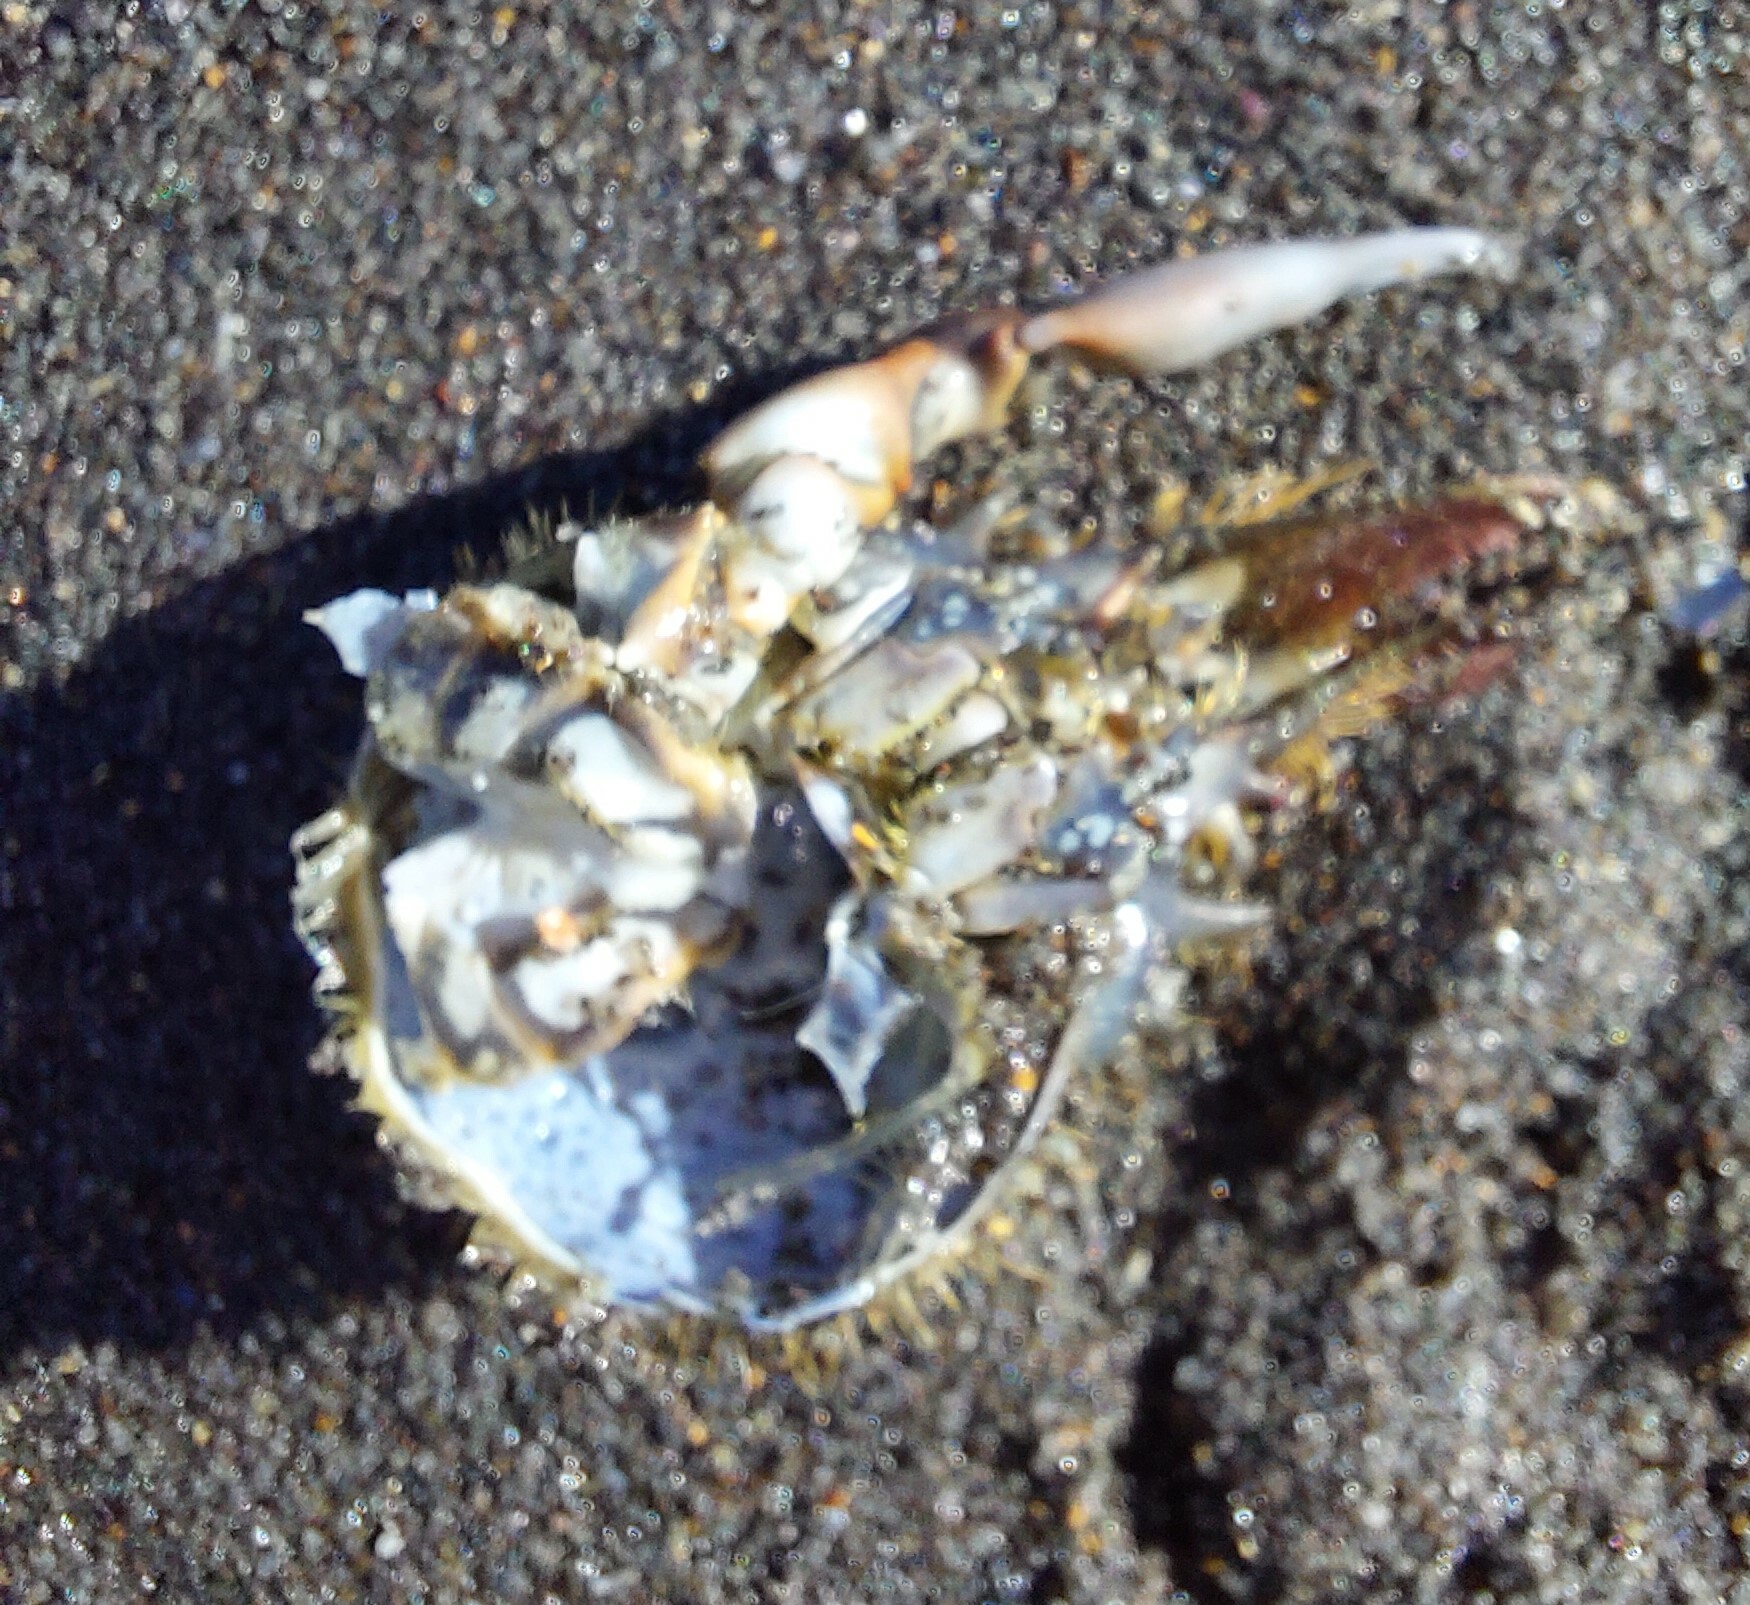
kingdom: Animalia
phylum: Arthropoda
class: Malacostraca
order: Decapoda
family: Majidae
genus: Notomithrax
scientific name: Notomithrax ursus
